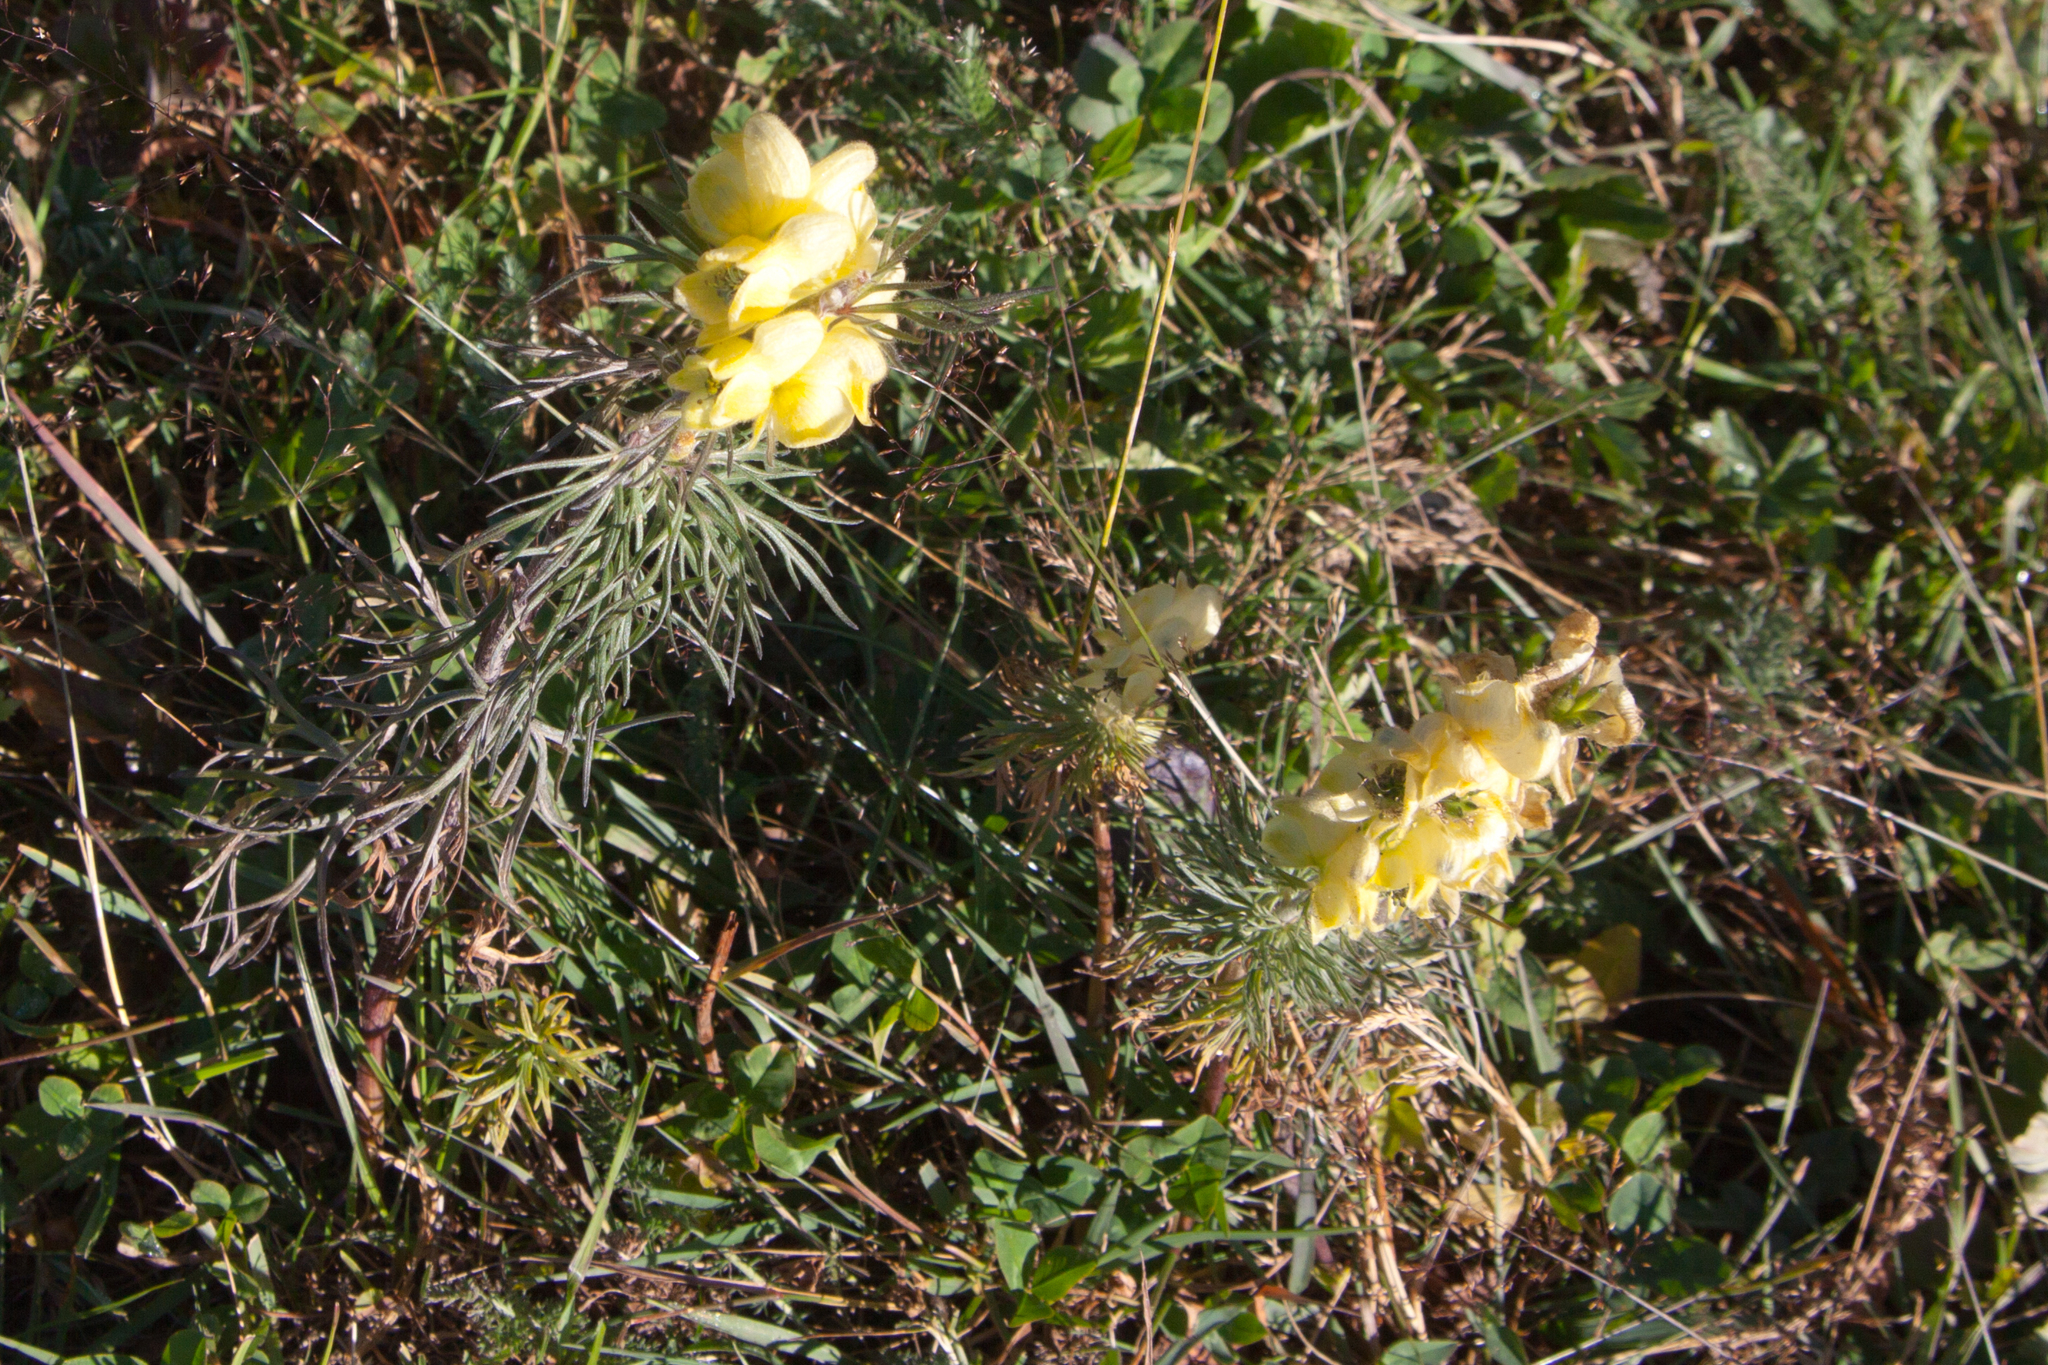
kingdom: Plantae
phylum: Tracheophyta
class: Magnoliopsida
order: Ranunculales
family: Ranunculaceae
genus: Aconitum
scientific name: Aconitum anthora
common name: Yellow monkshood
